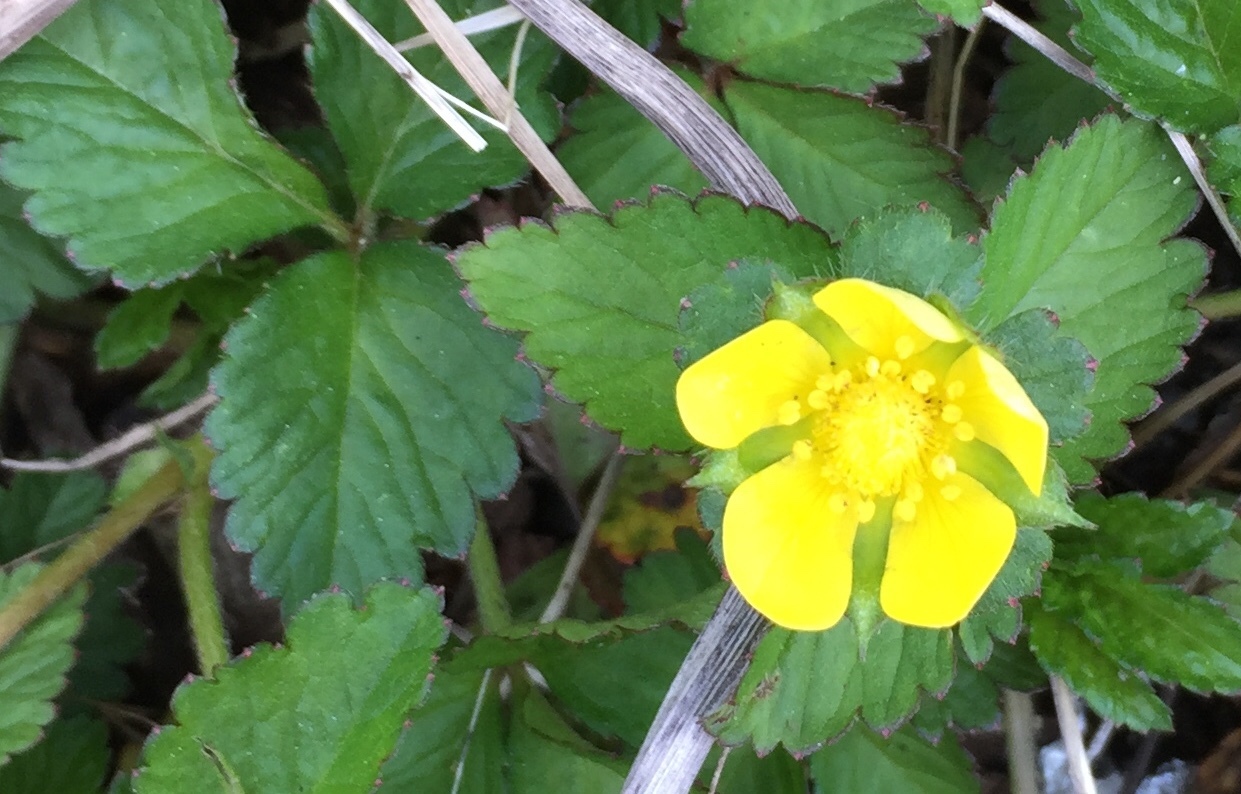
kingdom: Plantae
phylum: Tracheophyta
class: Magnoliopsida
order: Rosales
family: Rosaceae
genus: Potentilla
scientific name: Potentilla indica
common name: Yellow-flowered strawberry
